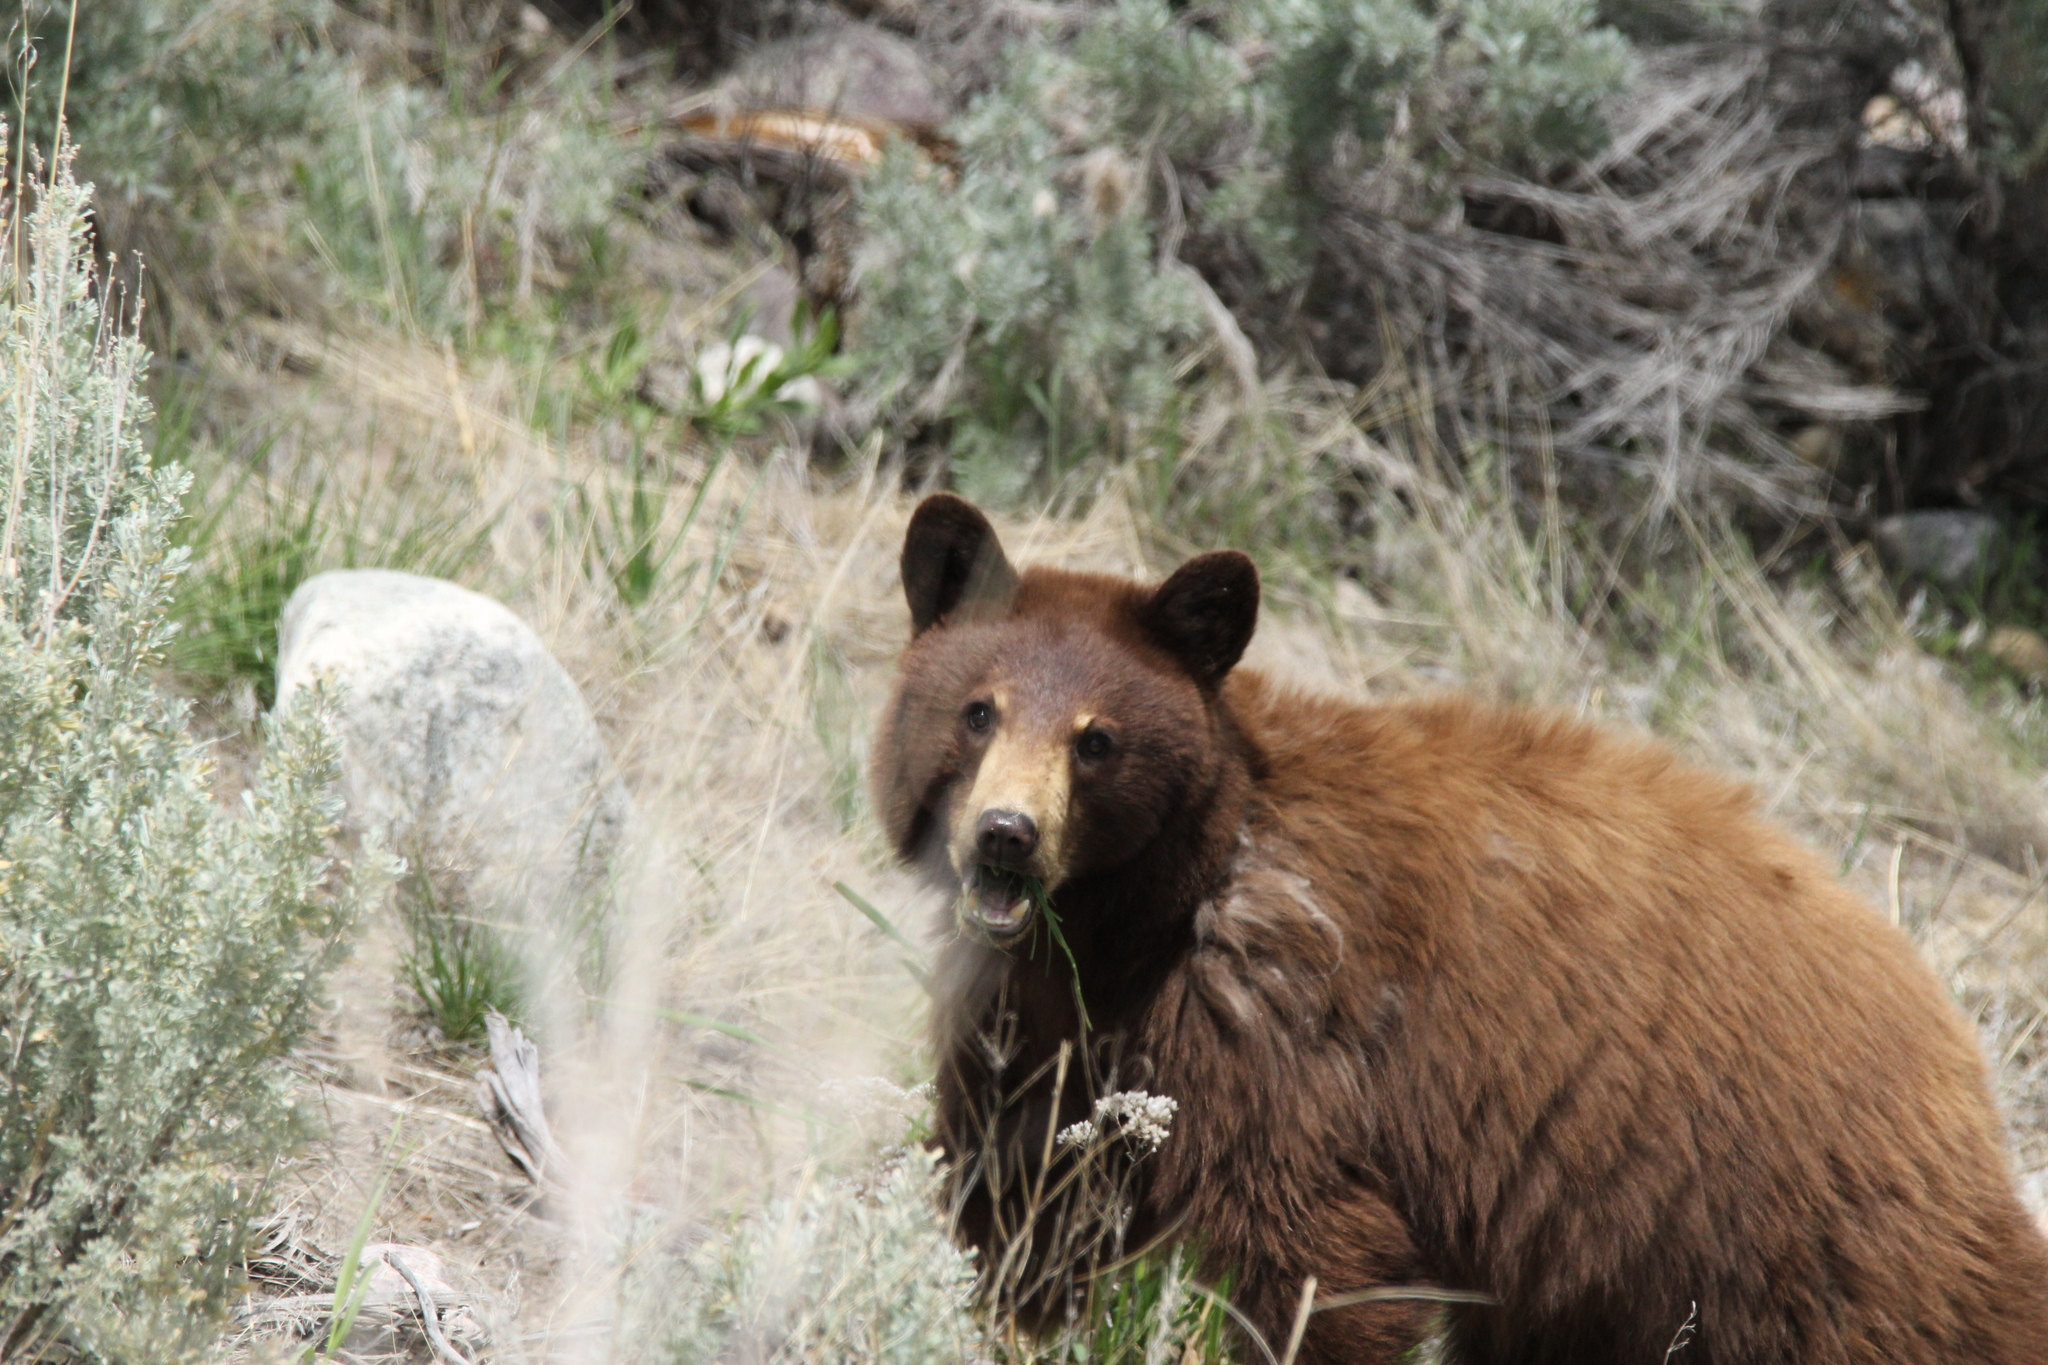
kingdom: Animalia
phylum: Chordata
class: Mammalia
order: Carnivora
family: Ursidae
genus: Ursus
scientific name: Ursus americanus
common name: American black bear
